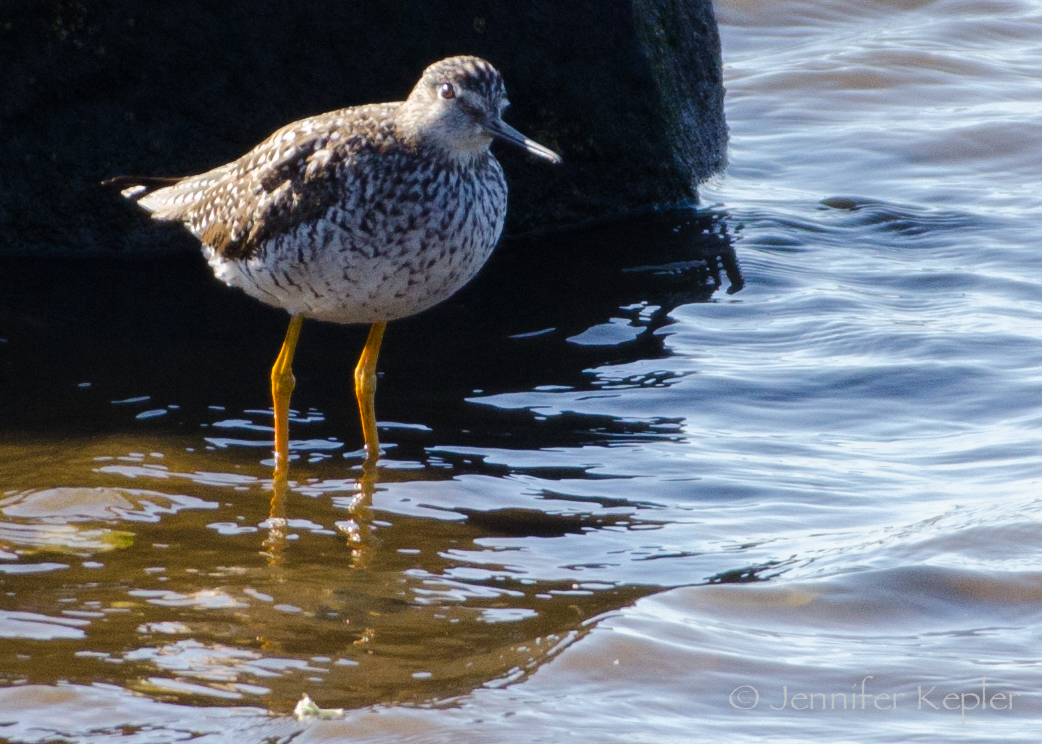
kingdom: Animalia
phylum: Chordata
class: Aves
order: Charadriiformes
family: Scolopacidae
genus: Tringa
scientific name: Tringa melanoleuca
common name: Greater yellowlegs
